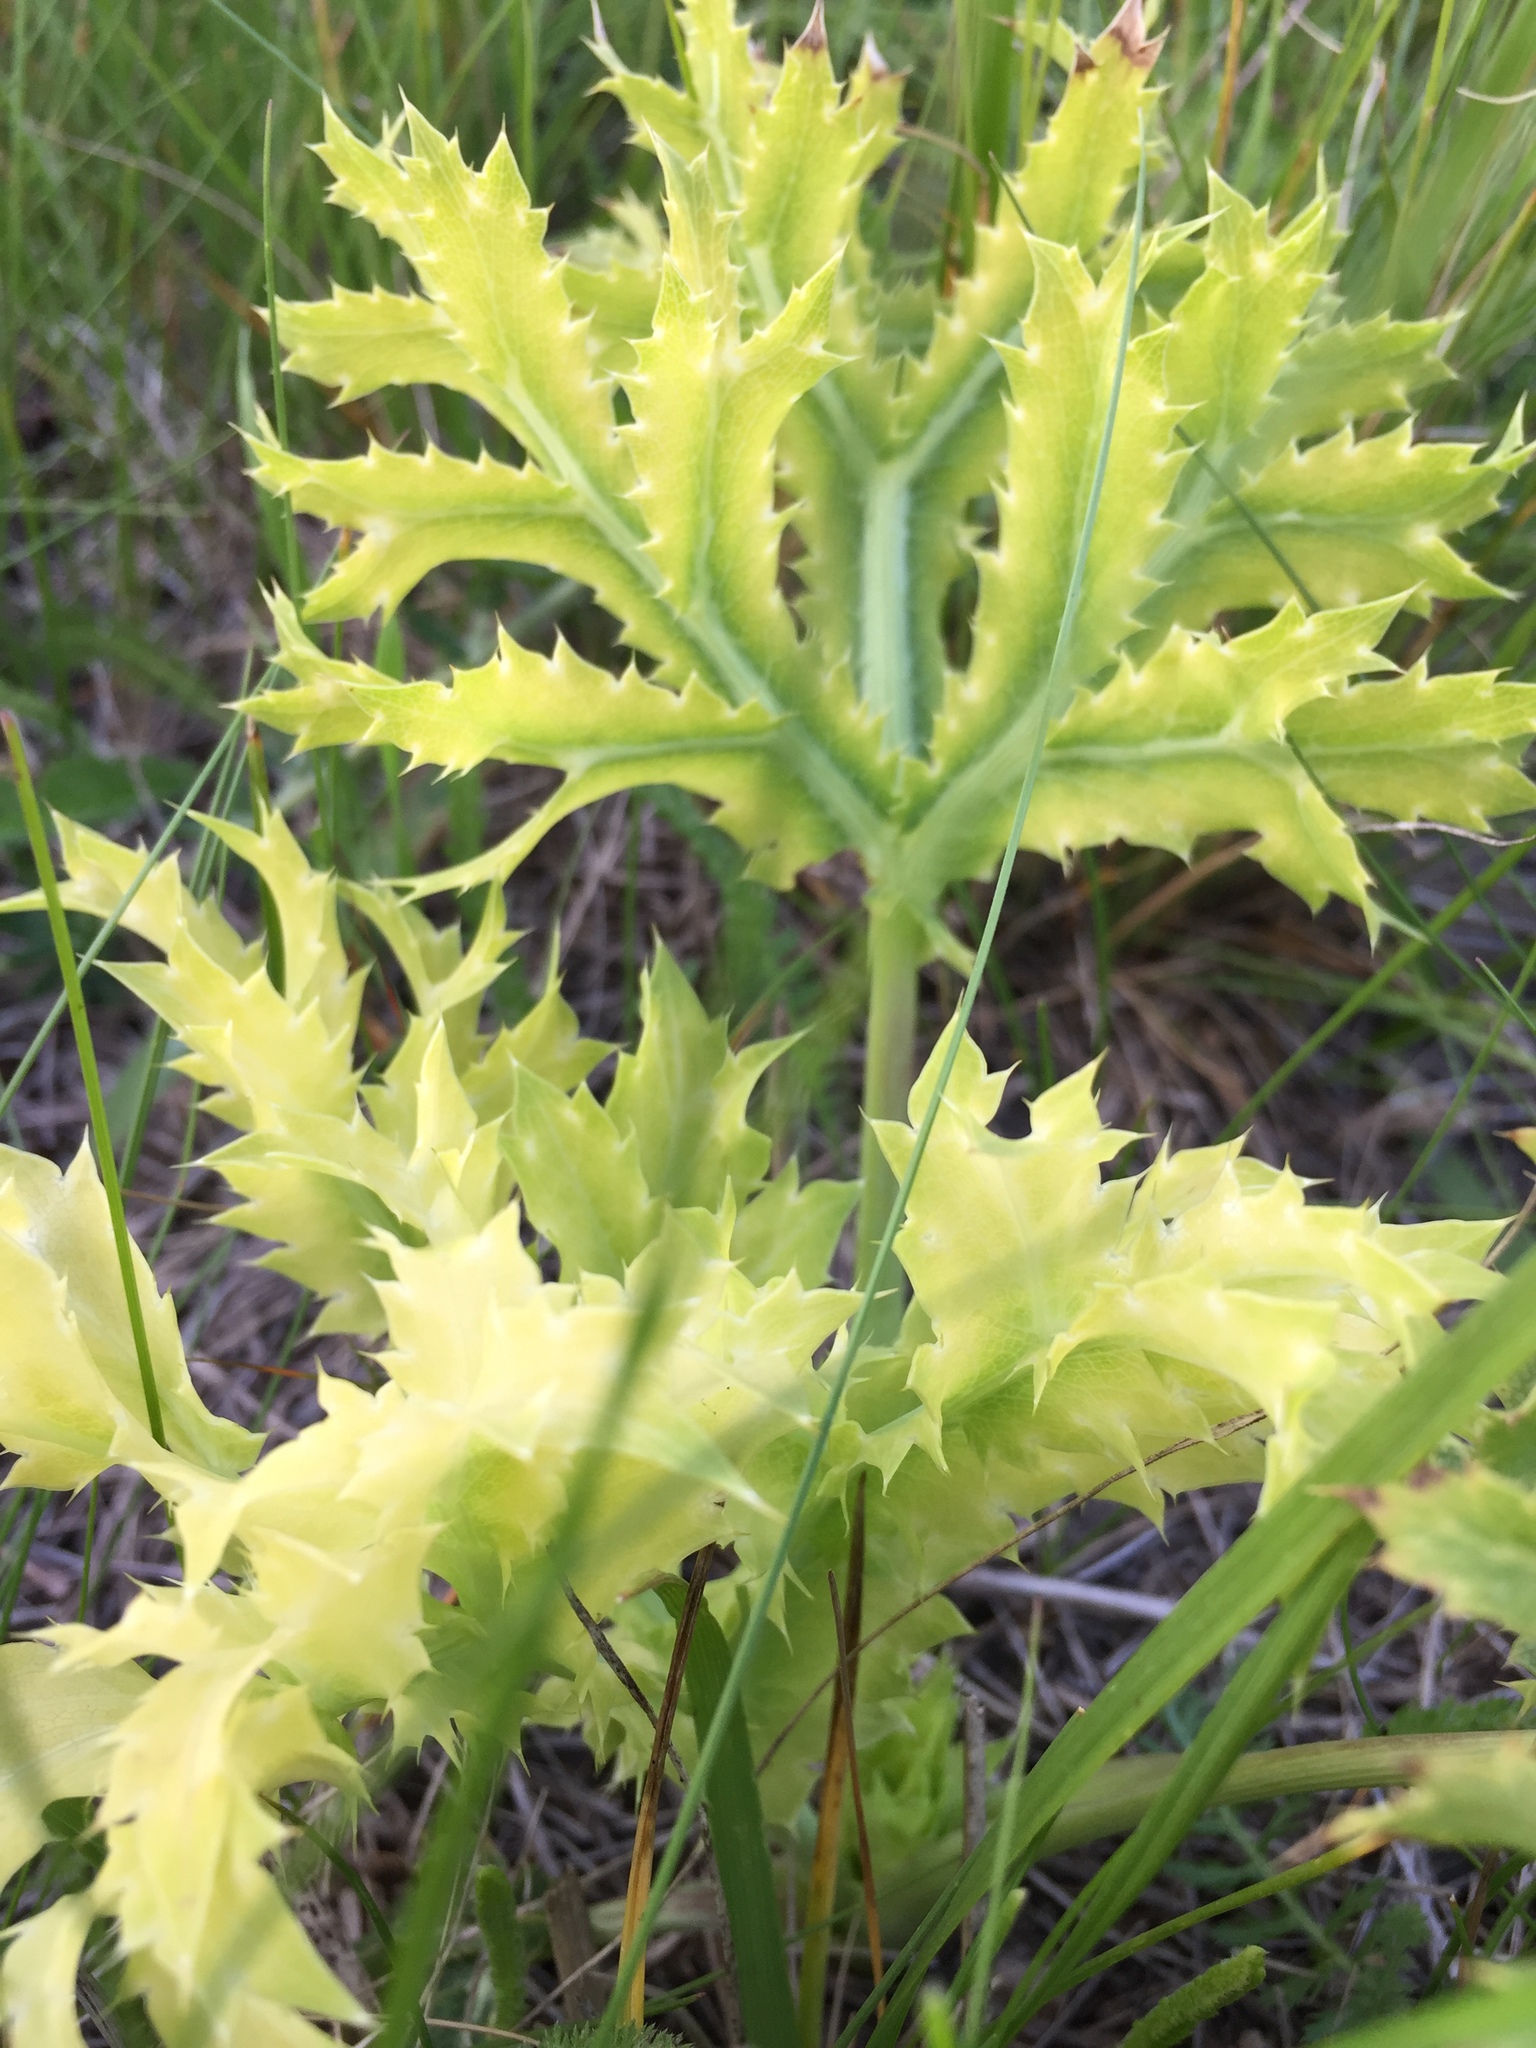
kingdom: Plantae
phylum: Tracheophyta
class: Magnoliopsida
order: Apiales
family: Apiaceae
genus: Eryngium
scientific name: Eryngium campestre
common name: Field eryngo
